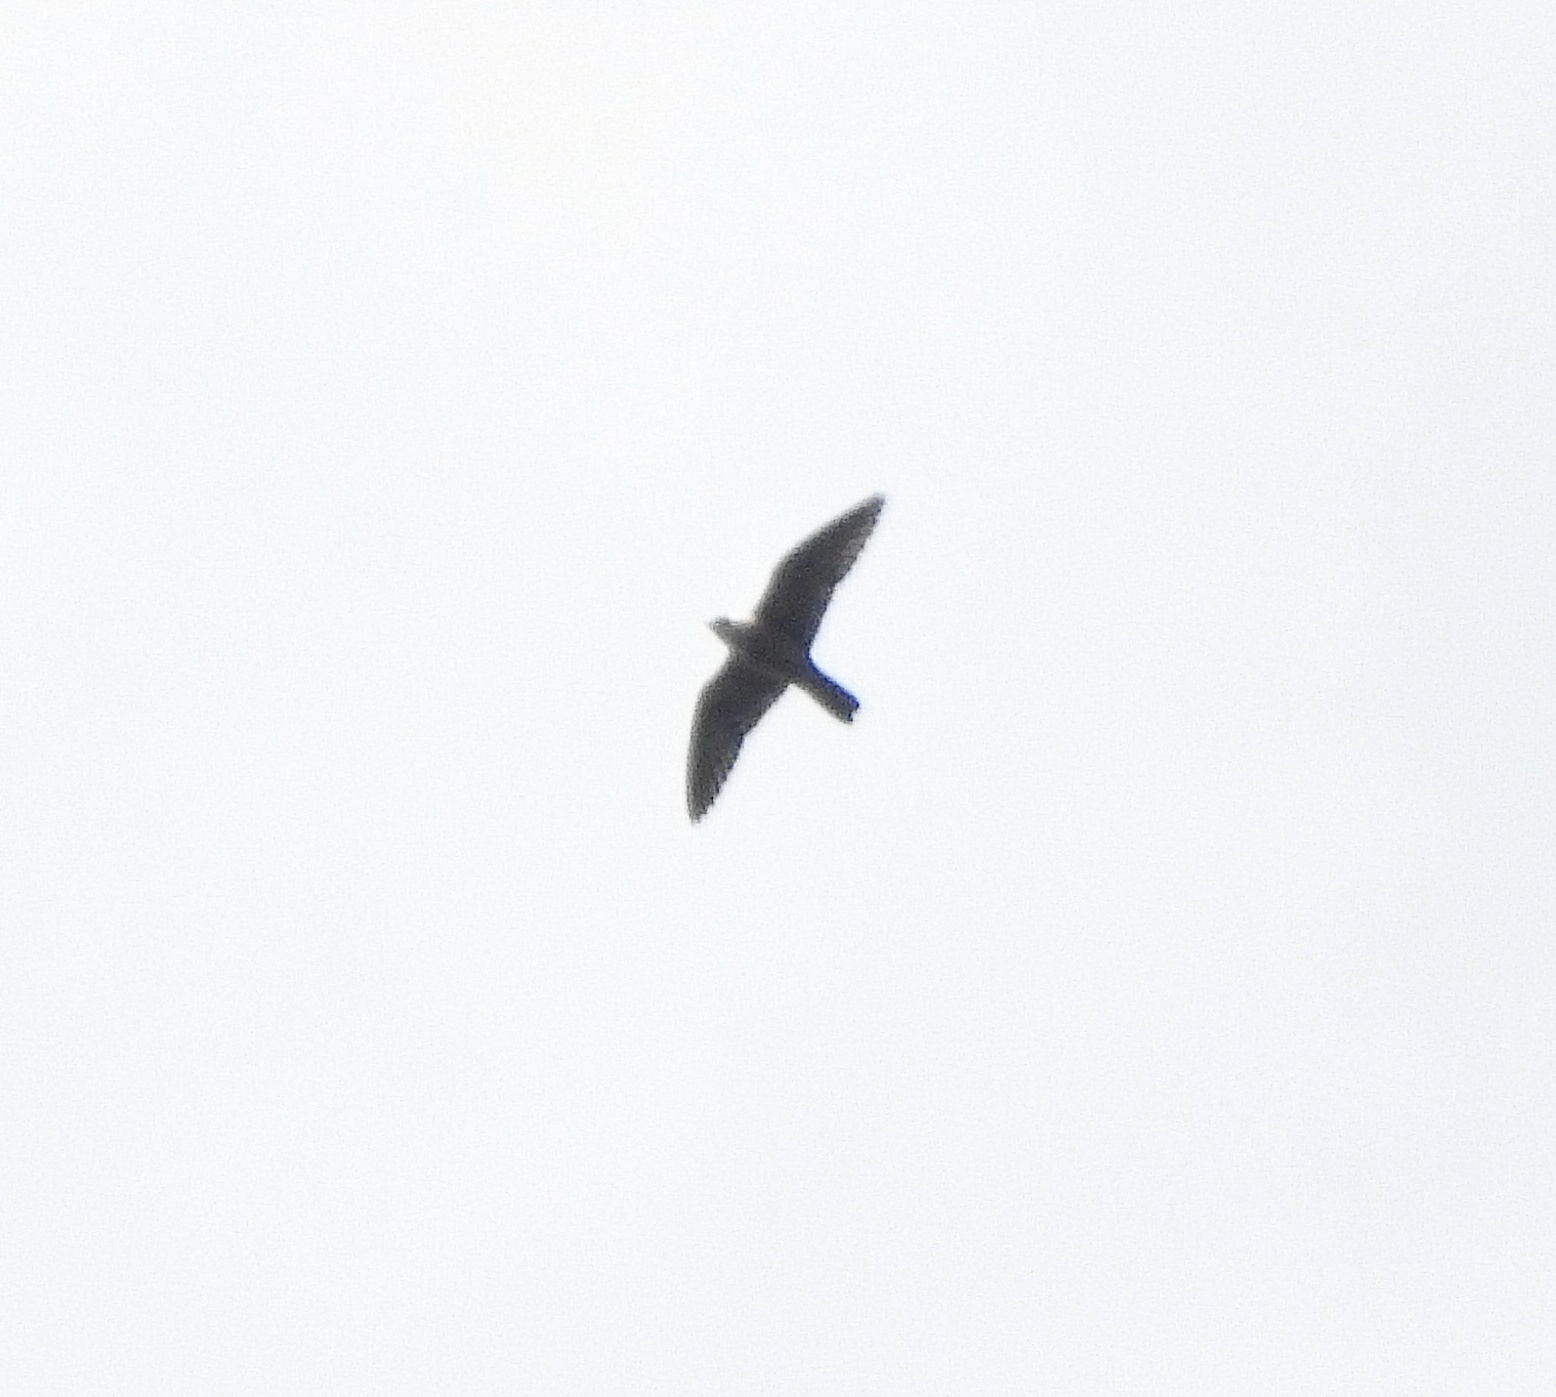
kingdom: Animalia
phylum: Chordata
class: Aves
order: Falconiformes
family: Falconidae
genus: Falco
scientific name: Falco peregrinus
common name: Peregrine falcon
